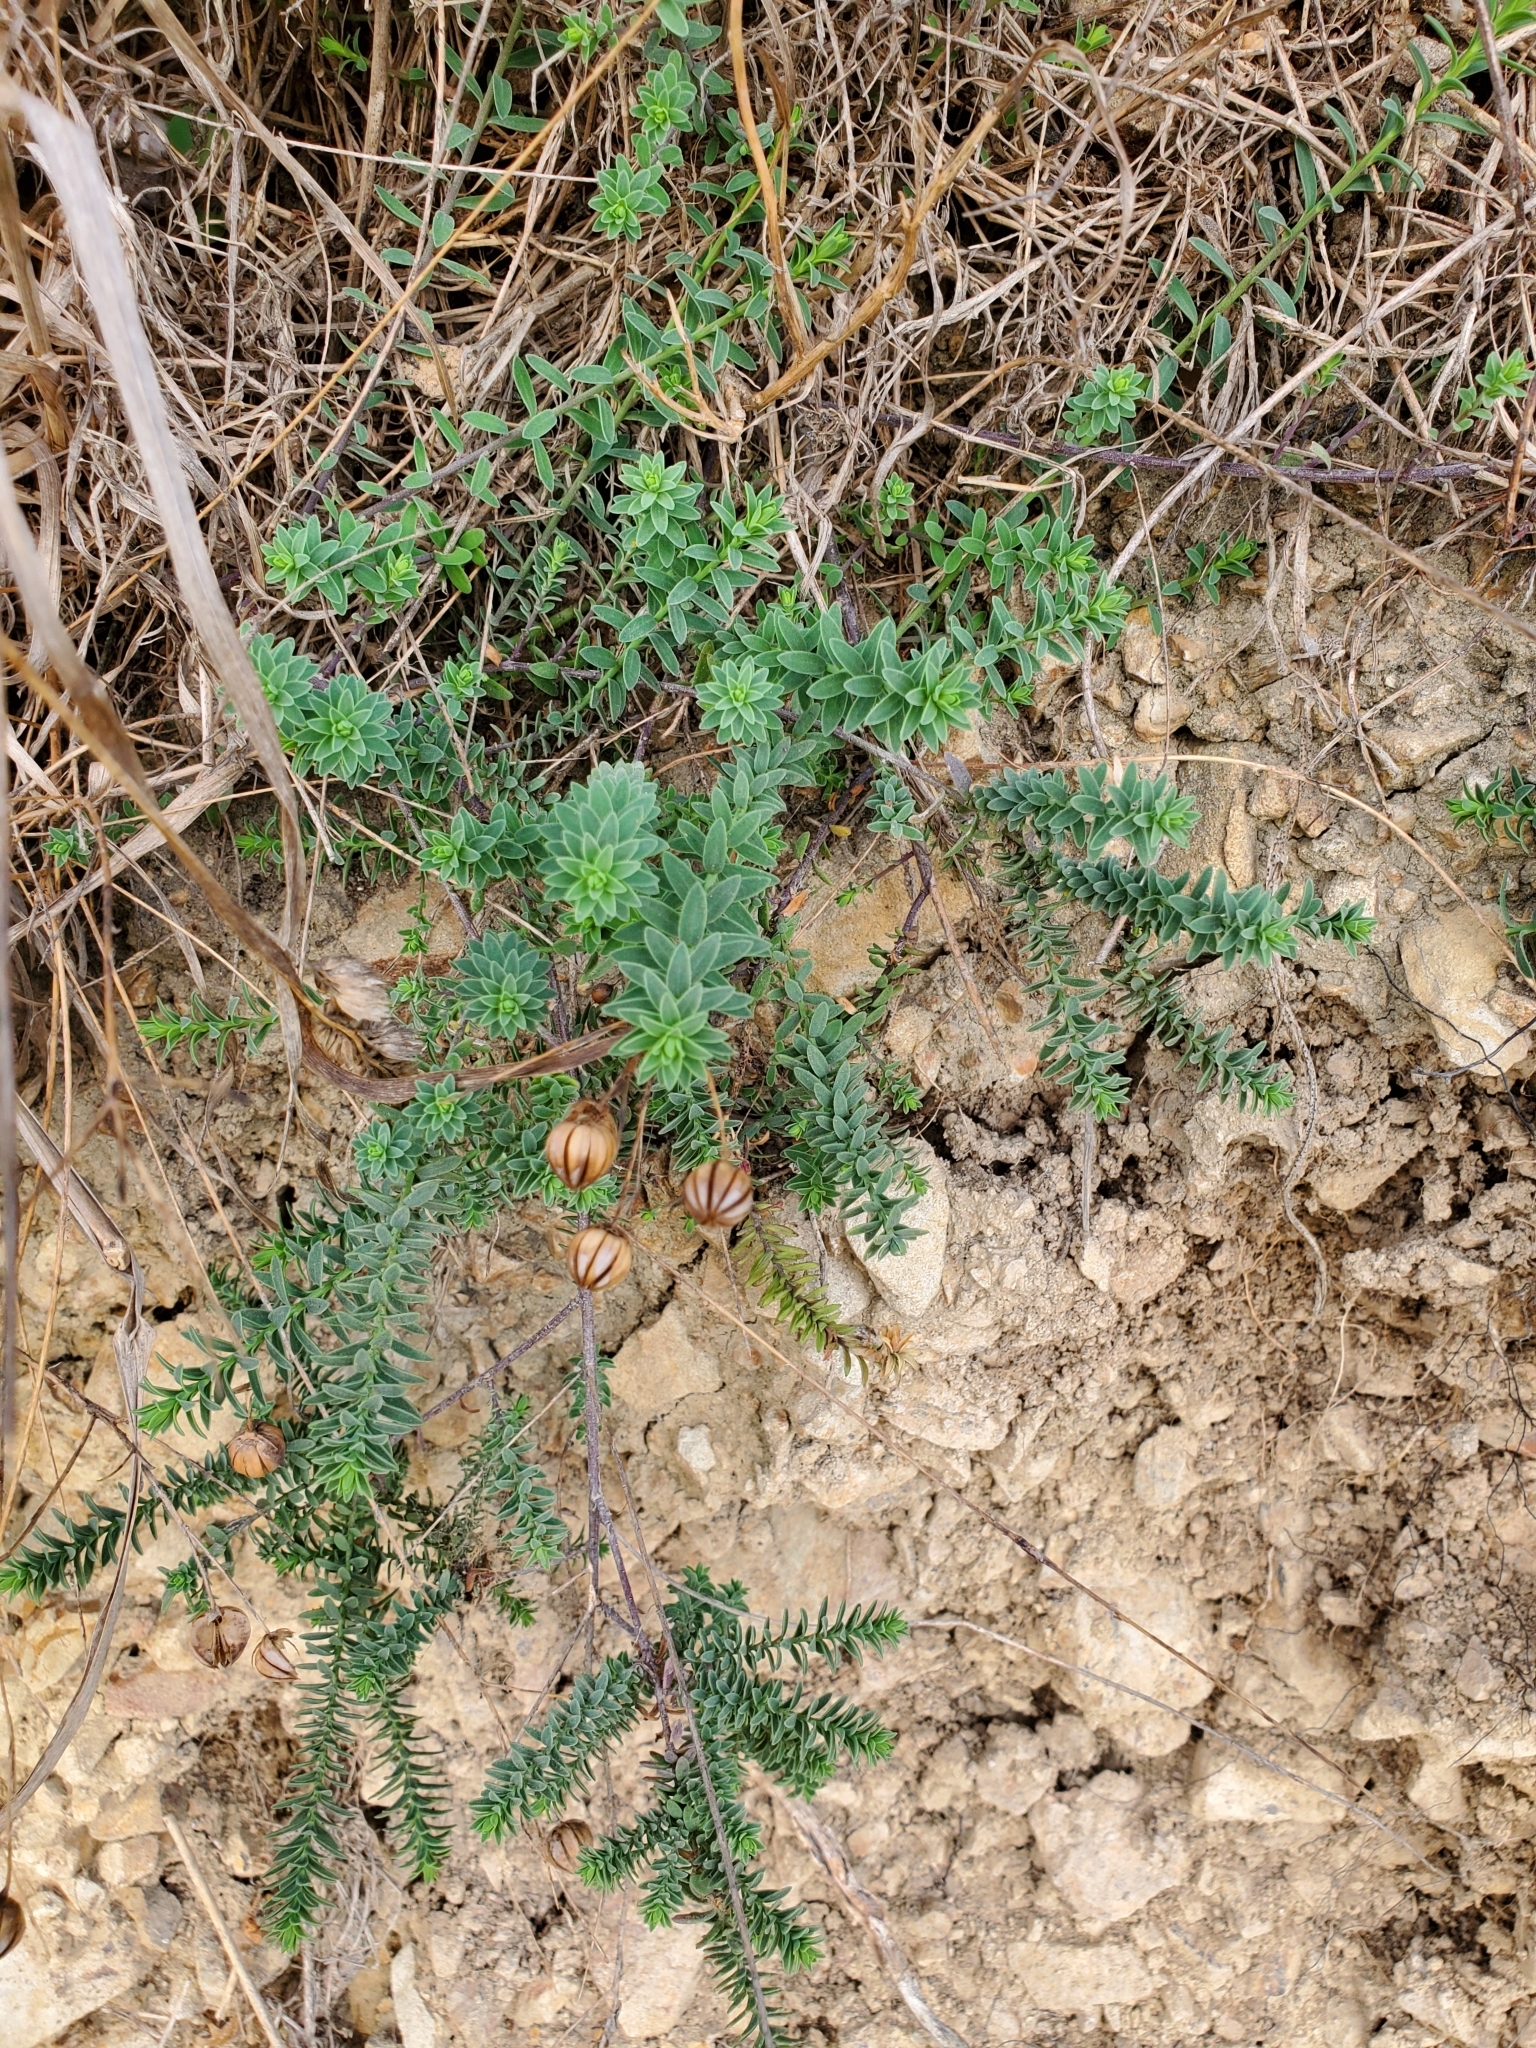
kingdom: Plantae
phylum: Tracheophyta
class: Magnoliopsida
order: Malpighiales
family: Linaceae
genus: Linum
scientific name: Linum monogynum
